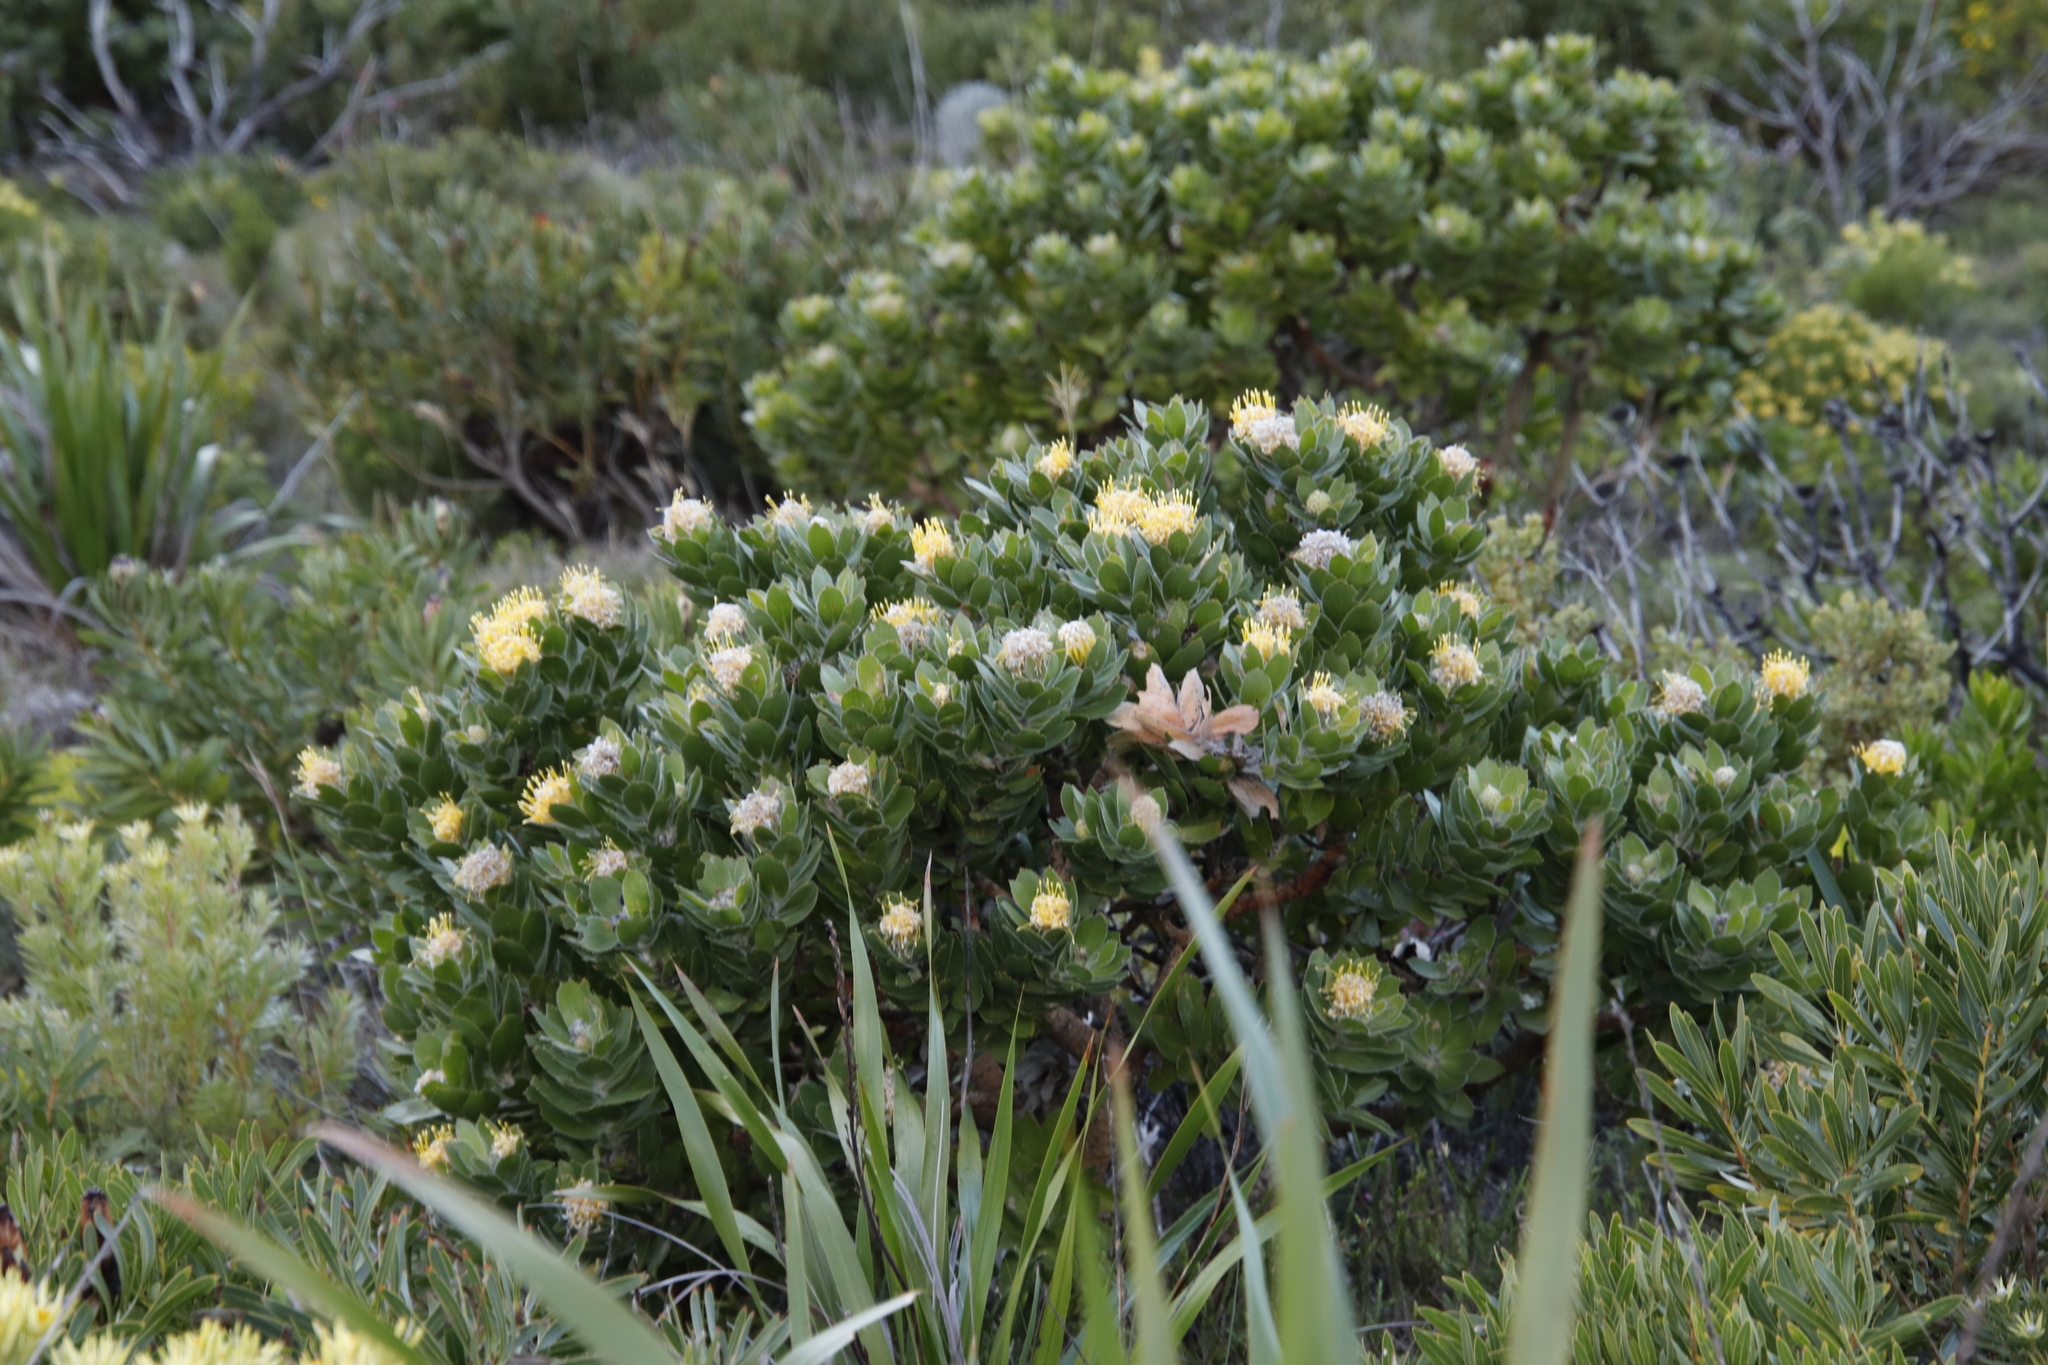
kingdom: Plantae
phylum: Tracheophyta
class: Magnoliopsida
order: Proteales
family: Proteaceae
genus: Leucospermum
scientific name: Leucospermum conocarpodendron
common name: Tree pincushion
